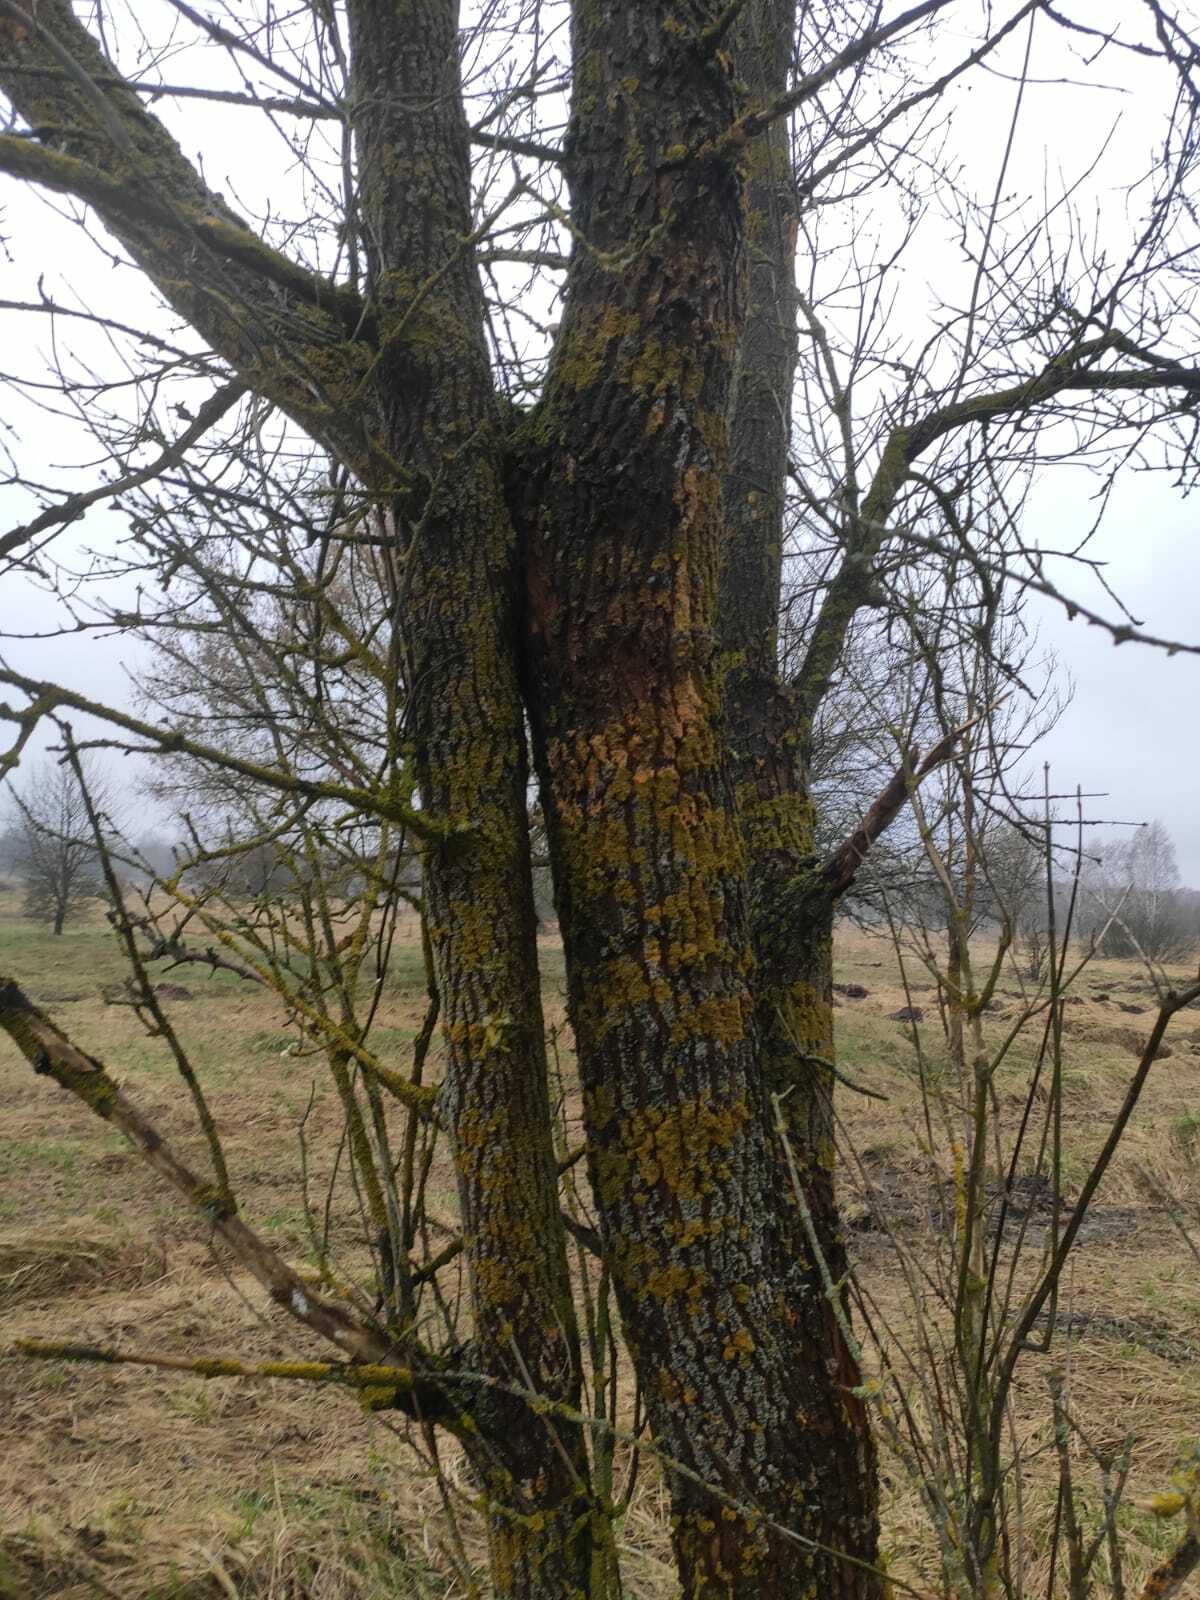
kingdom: Fungi
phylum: Ascomycota
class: Lecanoromycetes
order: Teloschistales
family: Teloschistaceae
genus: Xanthoria
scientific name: Xanthoria parietina
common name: Common orange lichen
